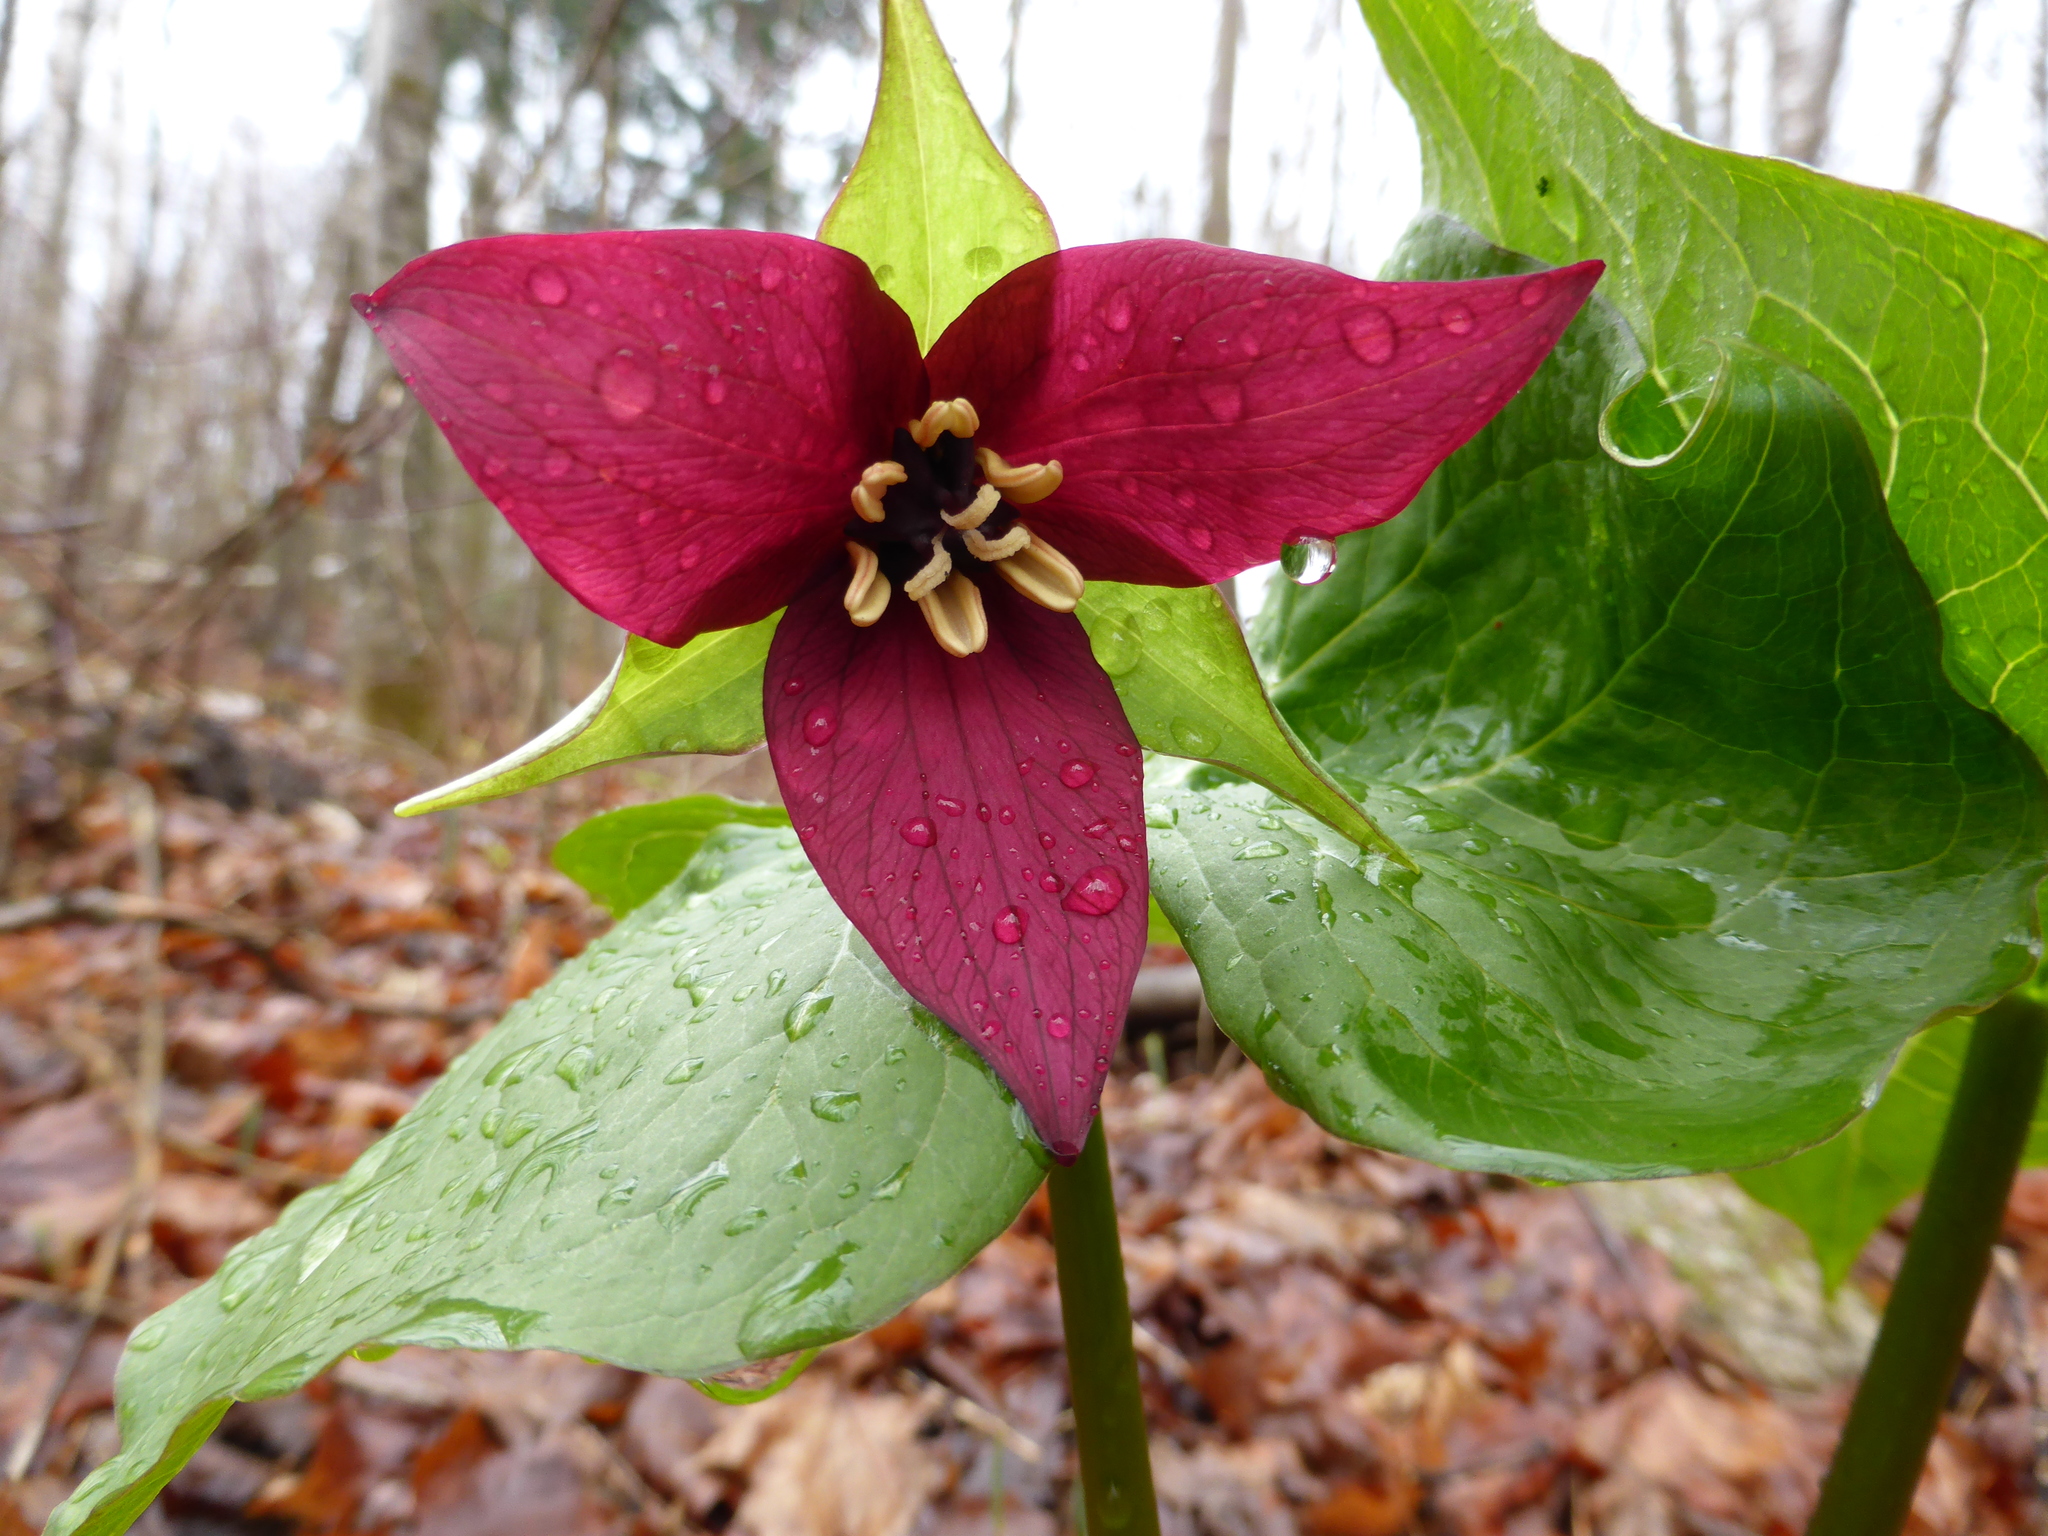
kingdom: Plantae
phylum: Tracheophyta
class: Liliopsida
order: Liliales
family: Melanthiaceae
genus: Trillium
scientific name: Trillium erectum
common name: Purple trillium
